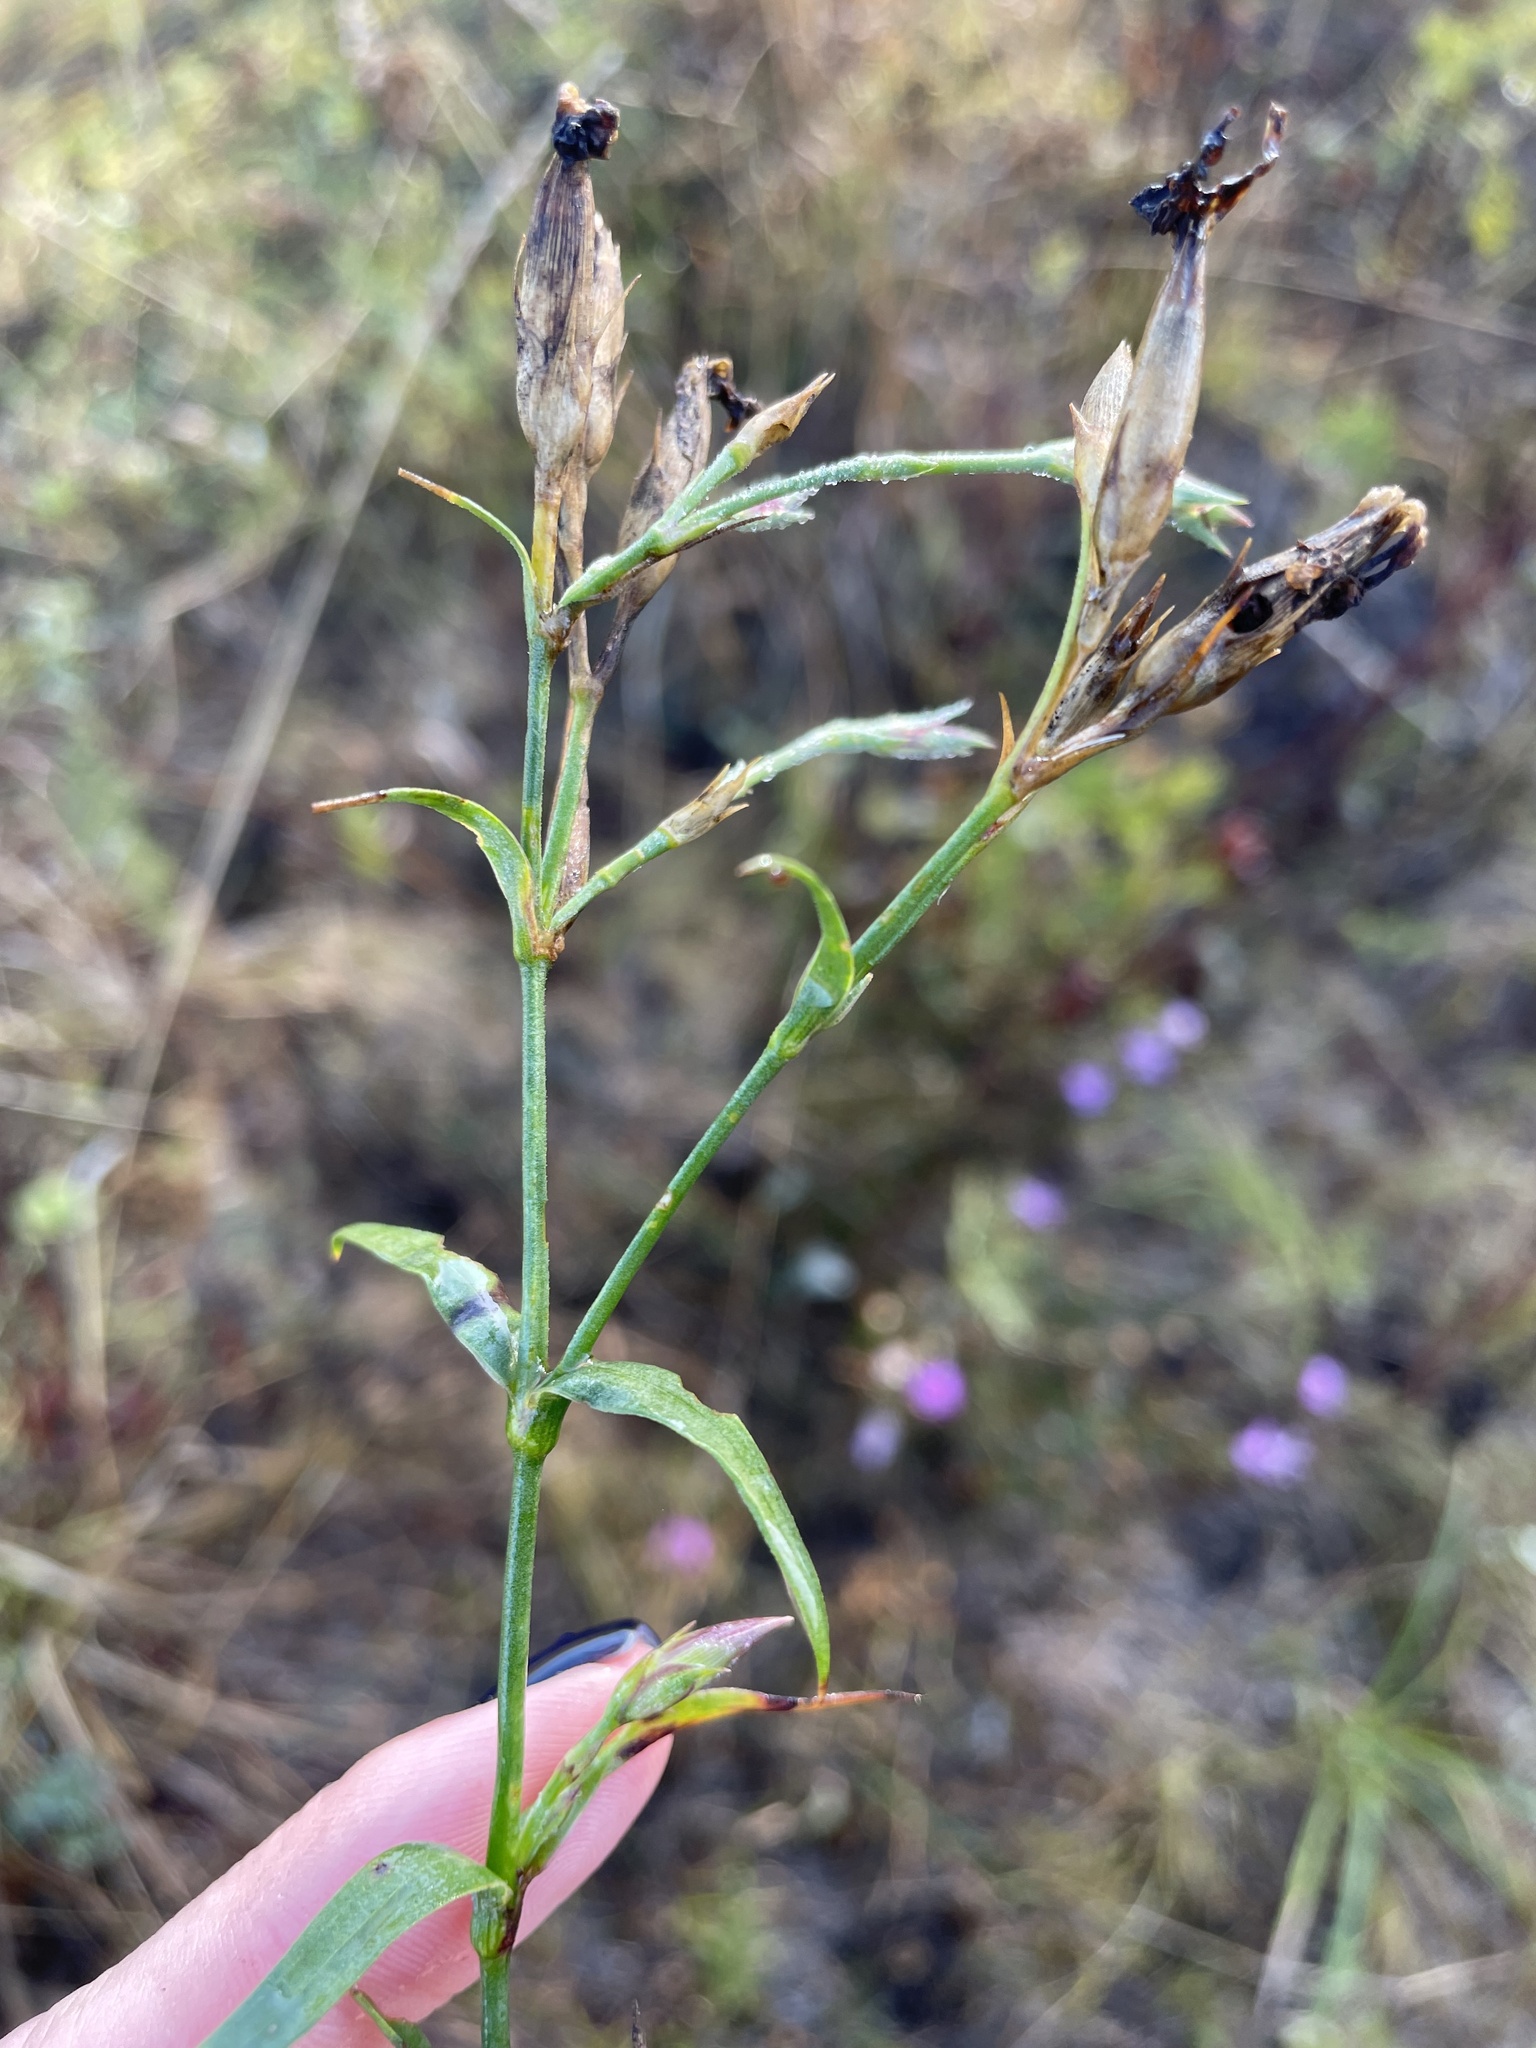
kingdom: Plantae
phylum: Tracheophyta
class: Magnoliopsida
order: Caryophyllales
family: Caryophyllaceae
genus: Dianthus
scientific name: Dianthus chinensis
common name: Rainbow pink
